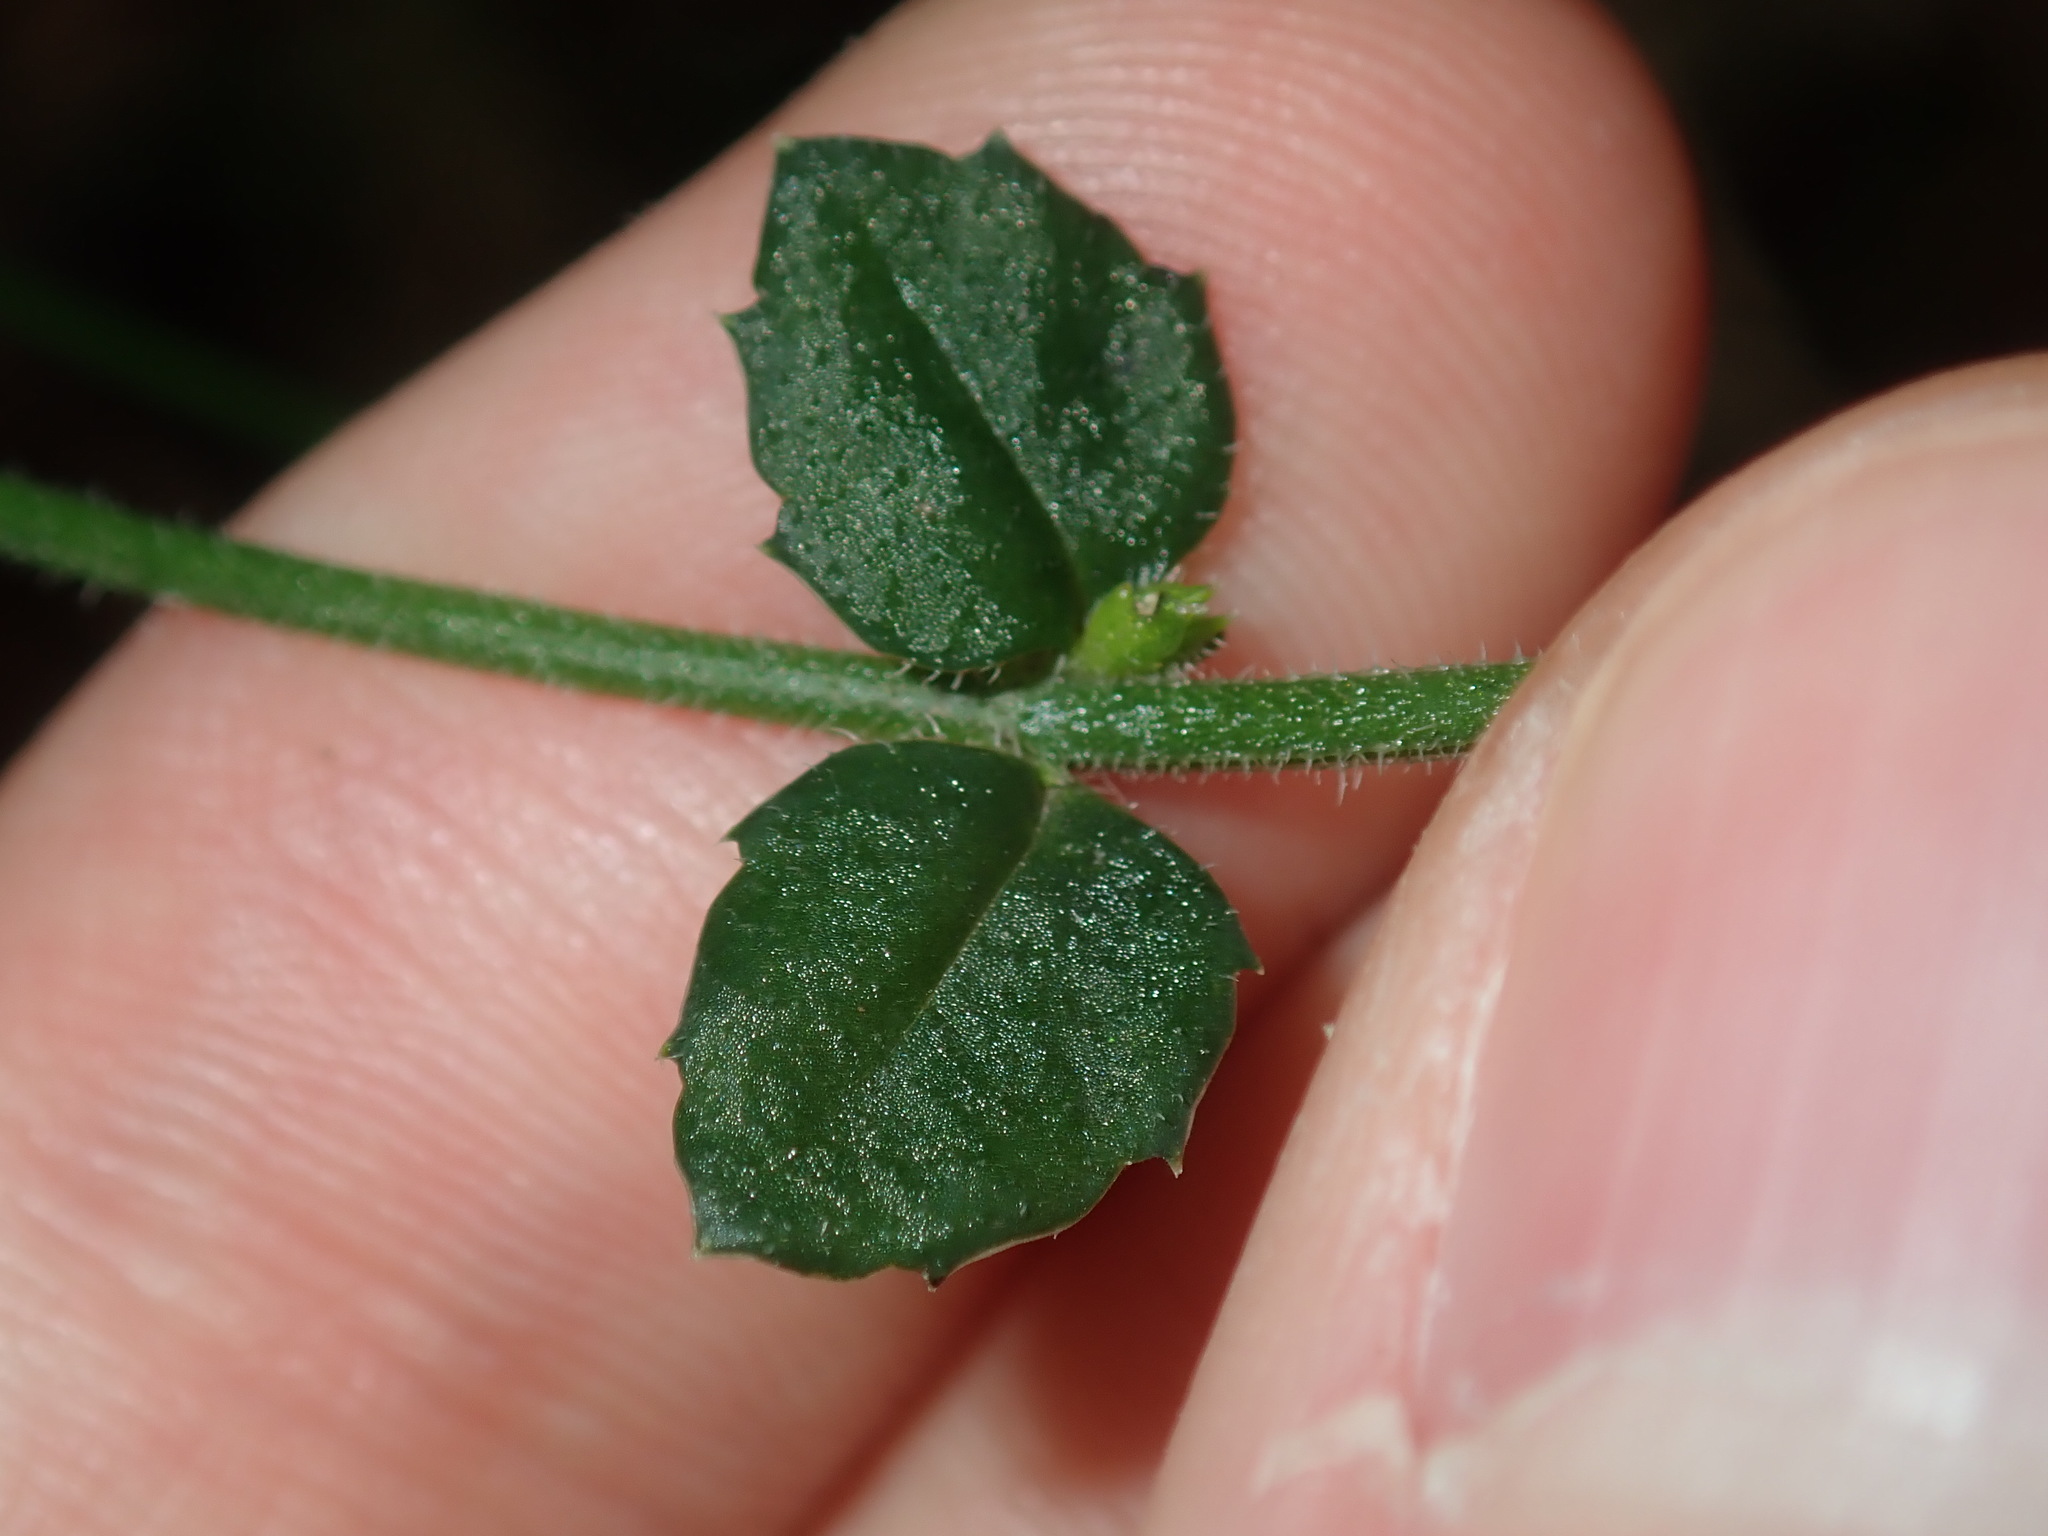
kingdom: Plantae
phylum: Tracheophyta
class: Magnoliopsida
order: Saxifragales
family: Haloragaceae
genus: Gonocarpus
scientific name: Gonocarpus tetragynus
